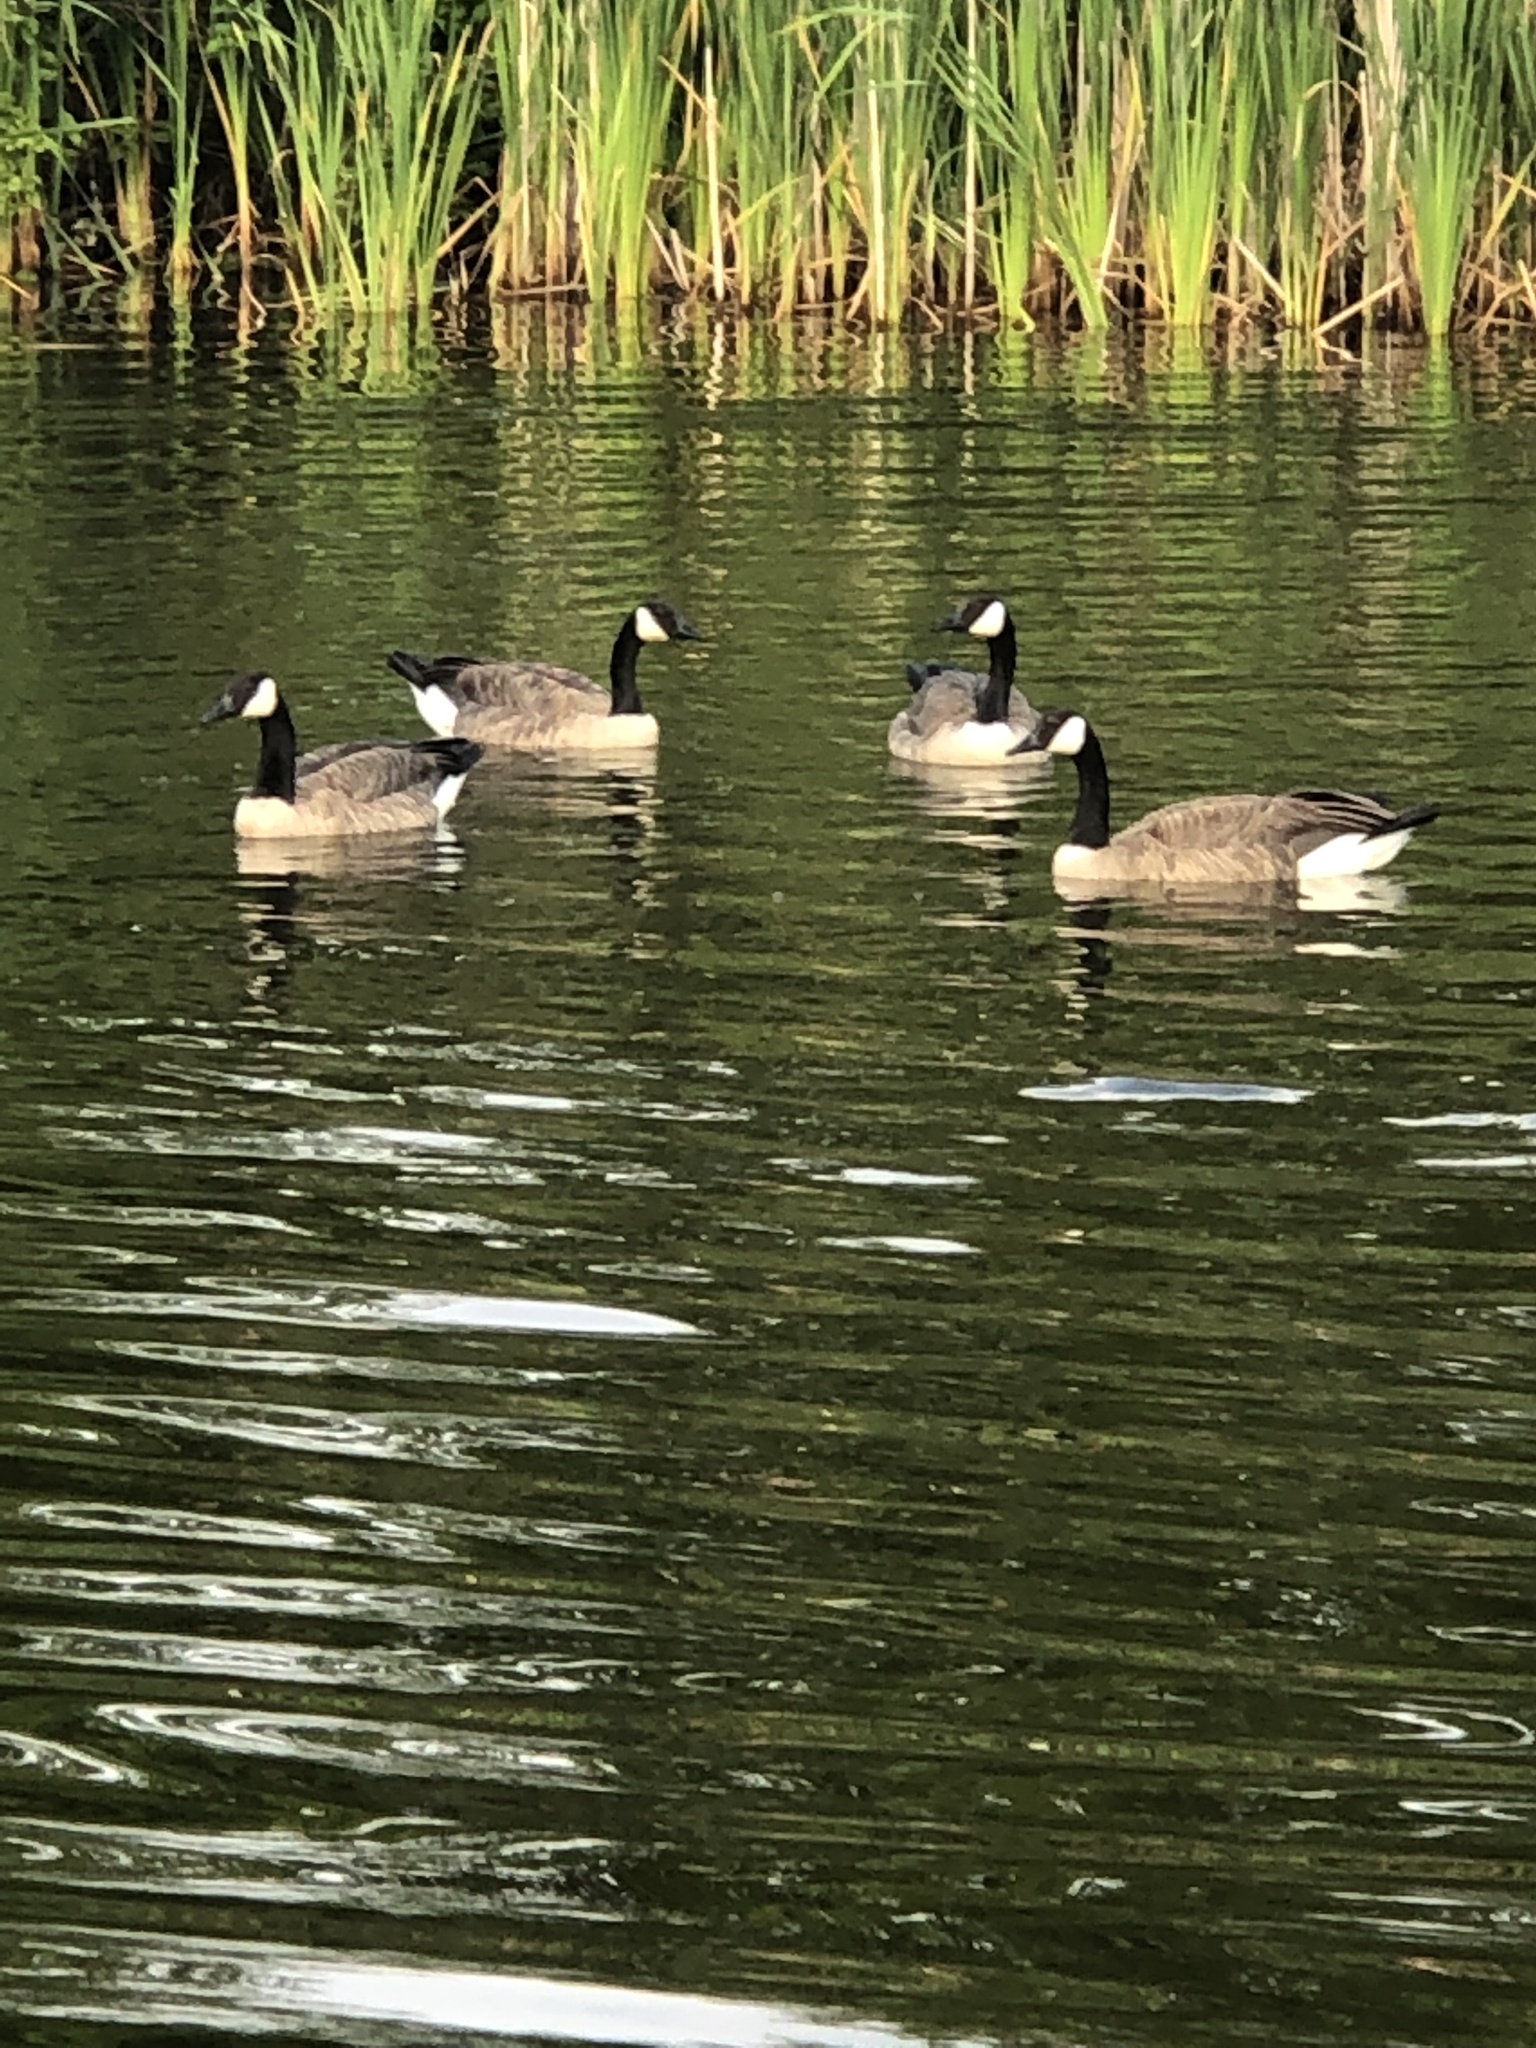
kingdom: Animalia
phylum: Chordata
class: Aves
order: Anseriformes
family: Anatidae
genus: Branta
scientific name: Branta canadensis
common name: Canada goose
